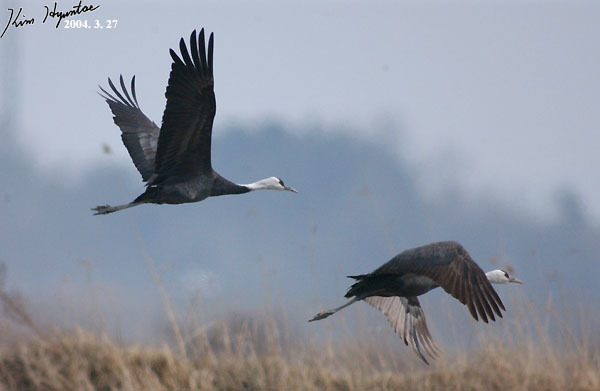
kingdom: Animalia
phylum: Chordata
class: Aves
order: Gruiformes
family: Gruidae
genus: Grus
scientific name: Grus monacha
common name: Hooded crane
